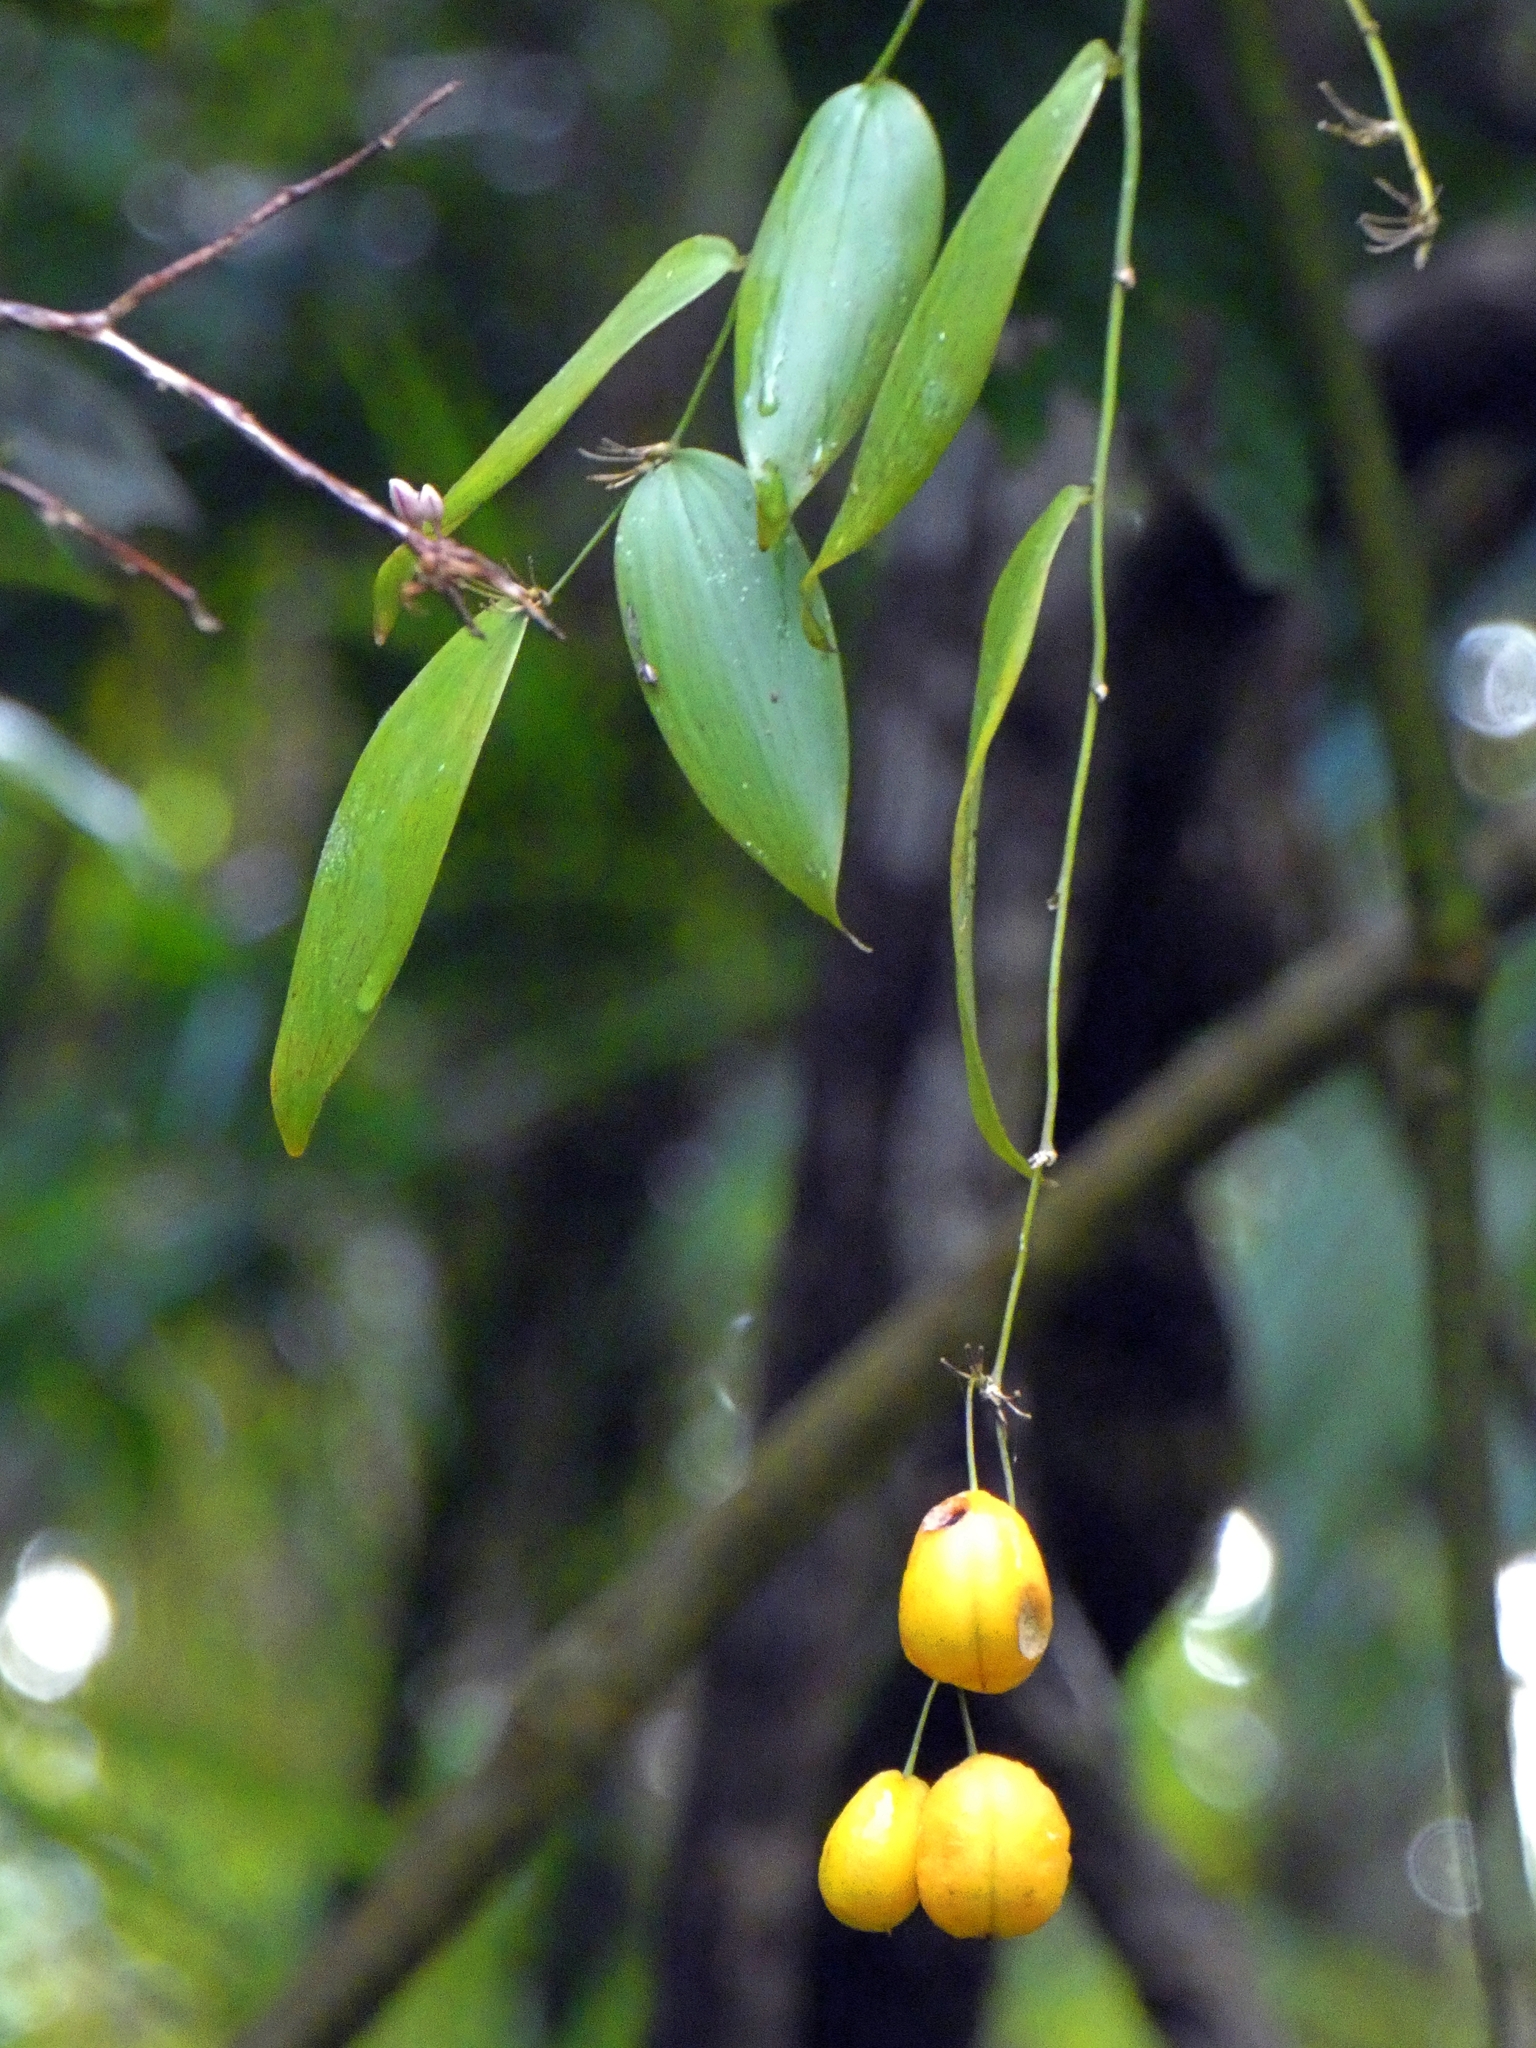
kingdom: Plantae
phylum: Tracheophyta
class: Liliopsida
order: Asparagales
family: Asparagaceae
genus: Eustrephus
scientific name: Eustrephus latifolius
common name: Orangevine
